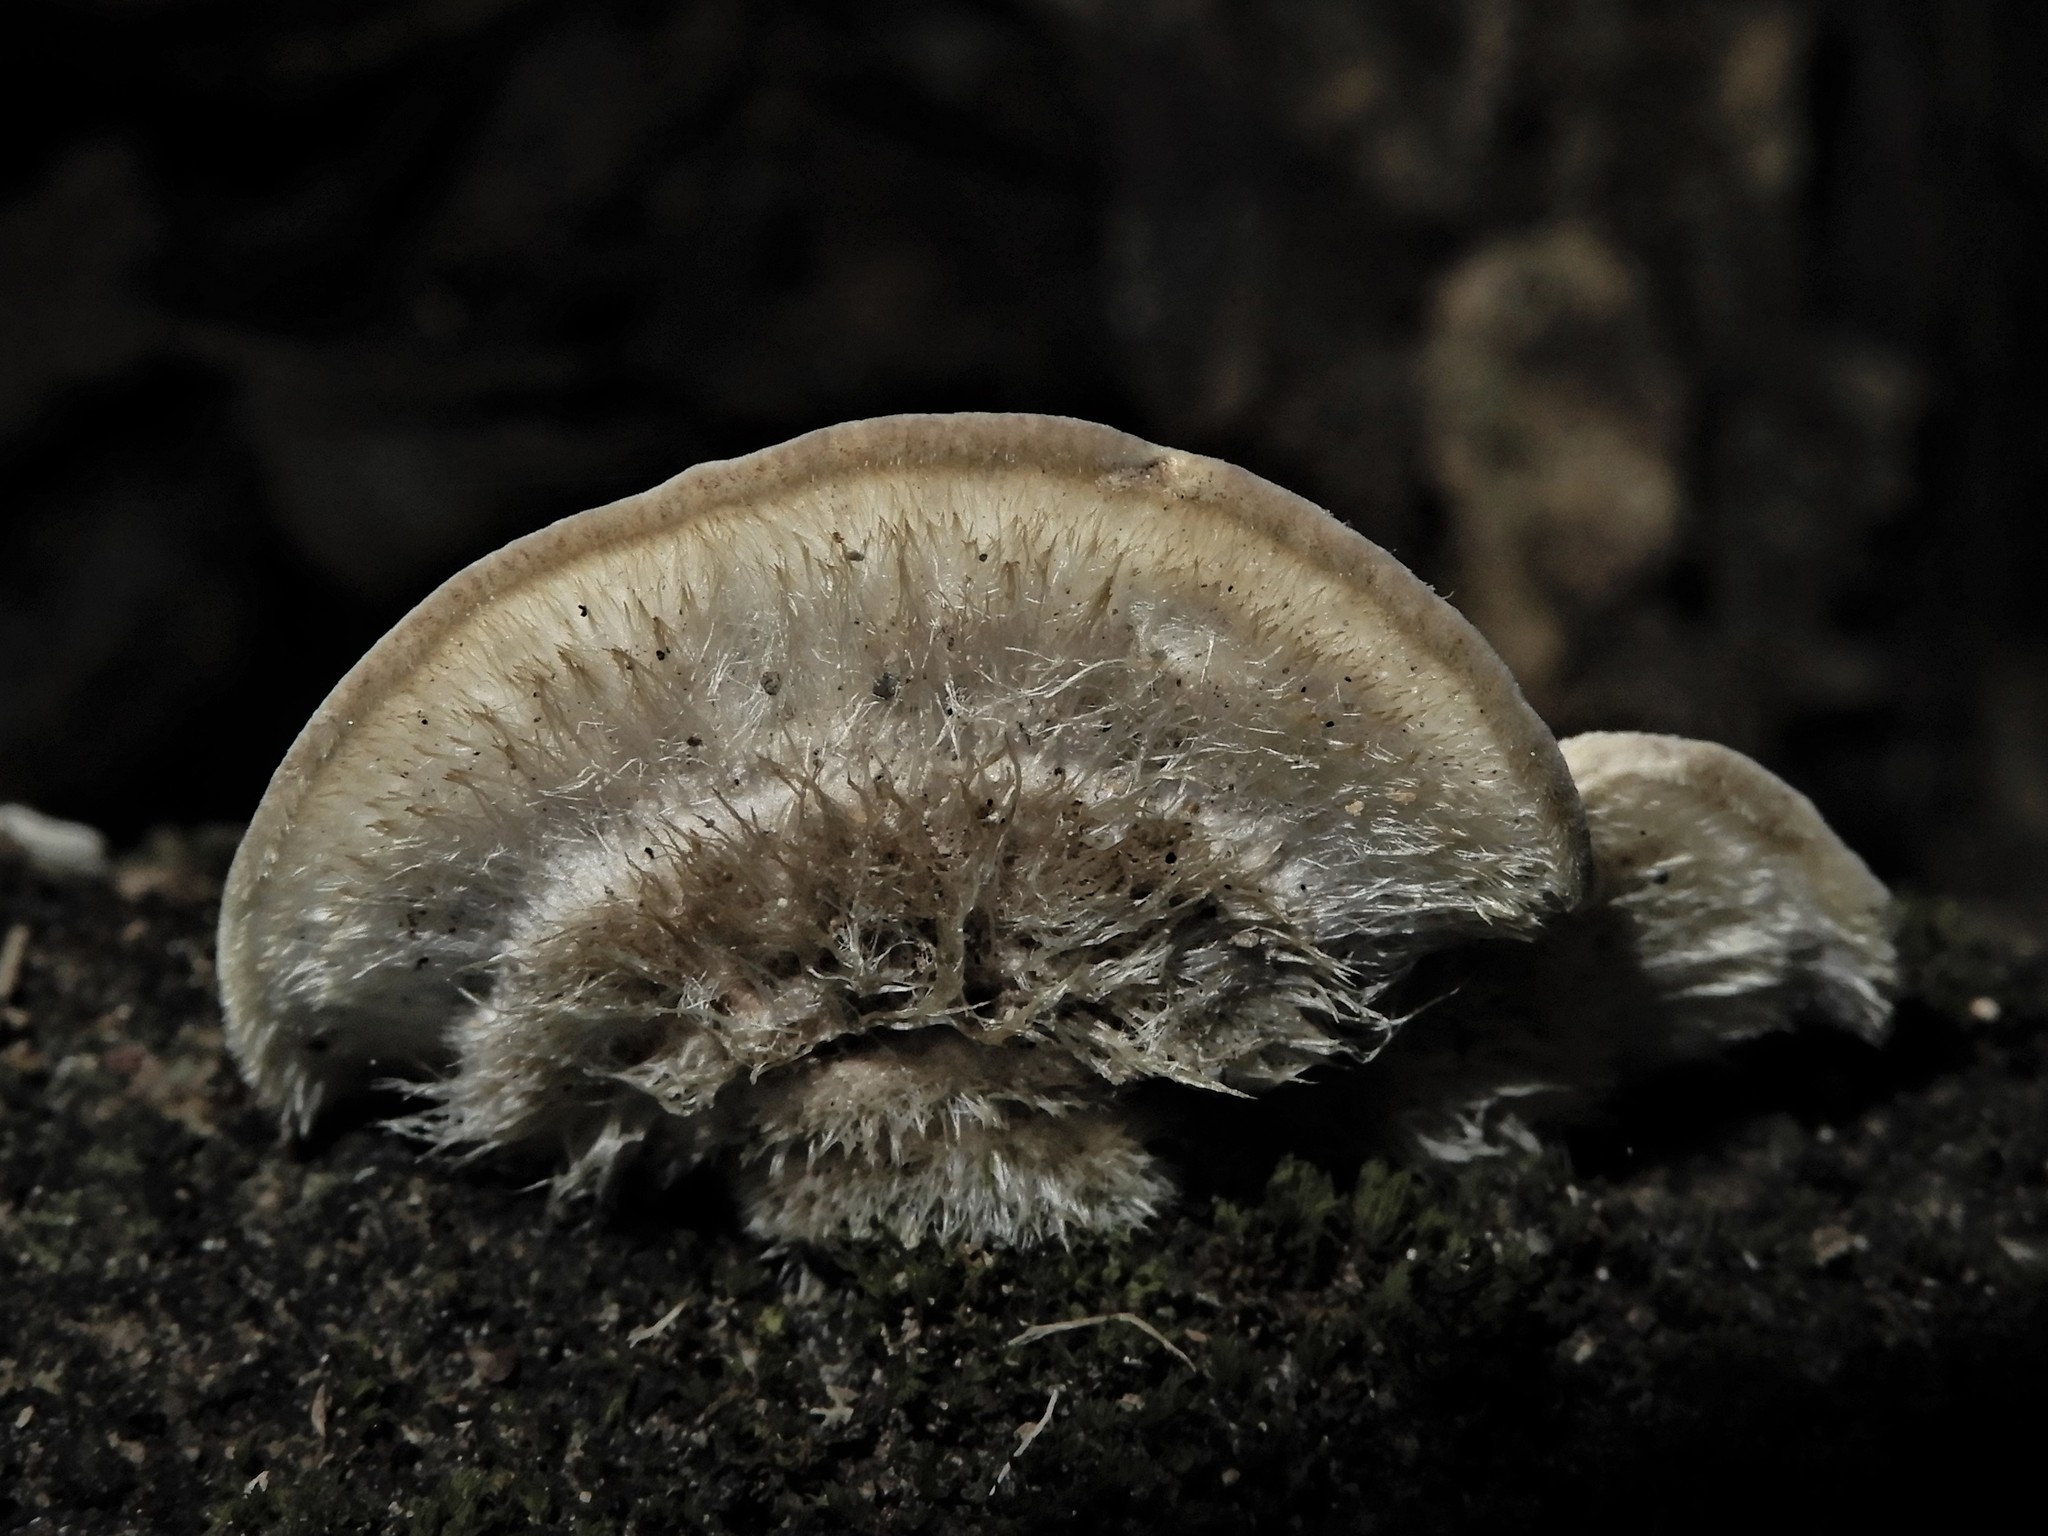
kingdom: Fungi
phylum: Basidiomycota
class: Agaricomycetes
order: Polyporales
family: Polyporaceae
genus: Trametes
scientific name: Trametes hirsuta
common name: Hairy bracket
